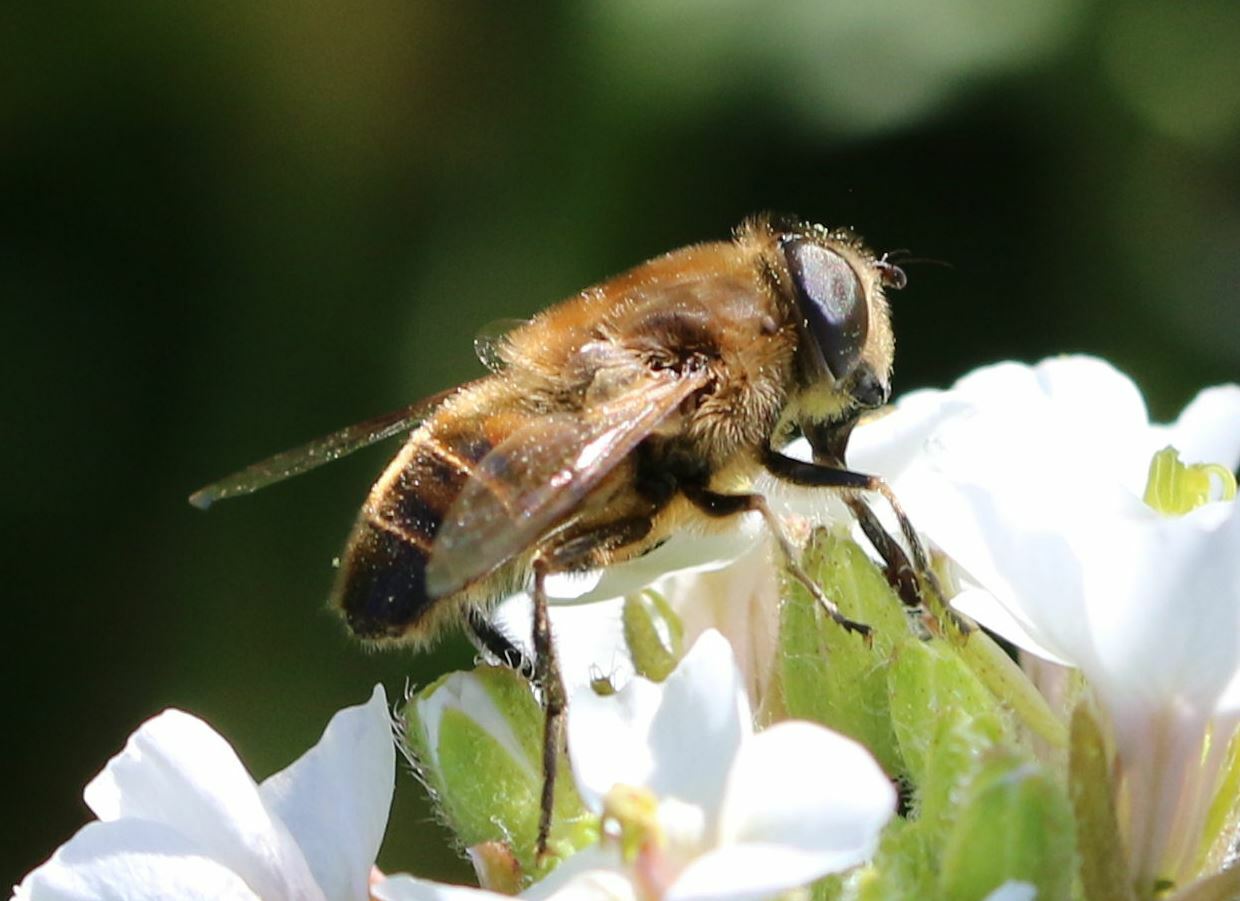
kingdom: Animalia
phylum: Arthropoda
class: Insecta
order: Diptera
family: Syrphidae
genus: Eristalis
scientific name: Eristalis tenax
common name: Drone fly
